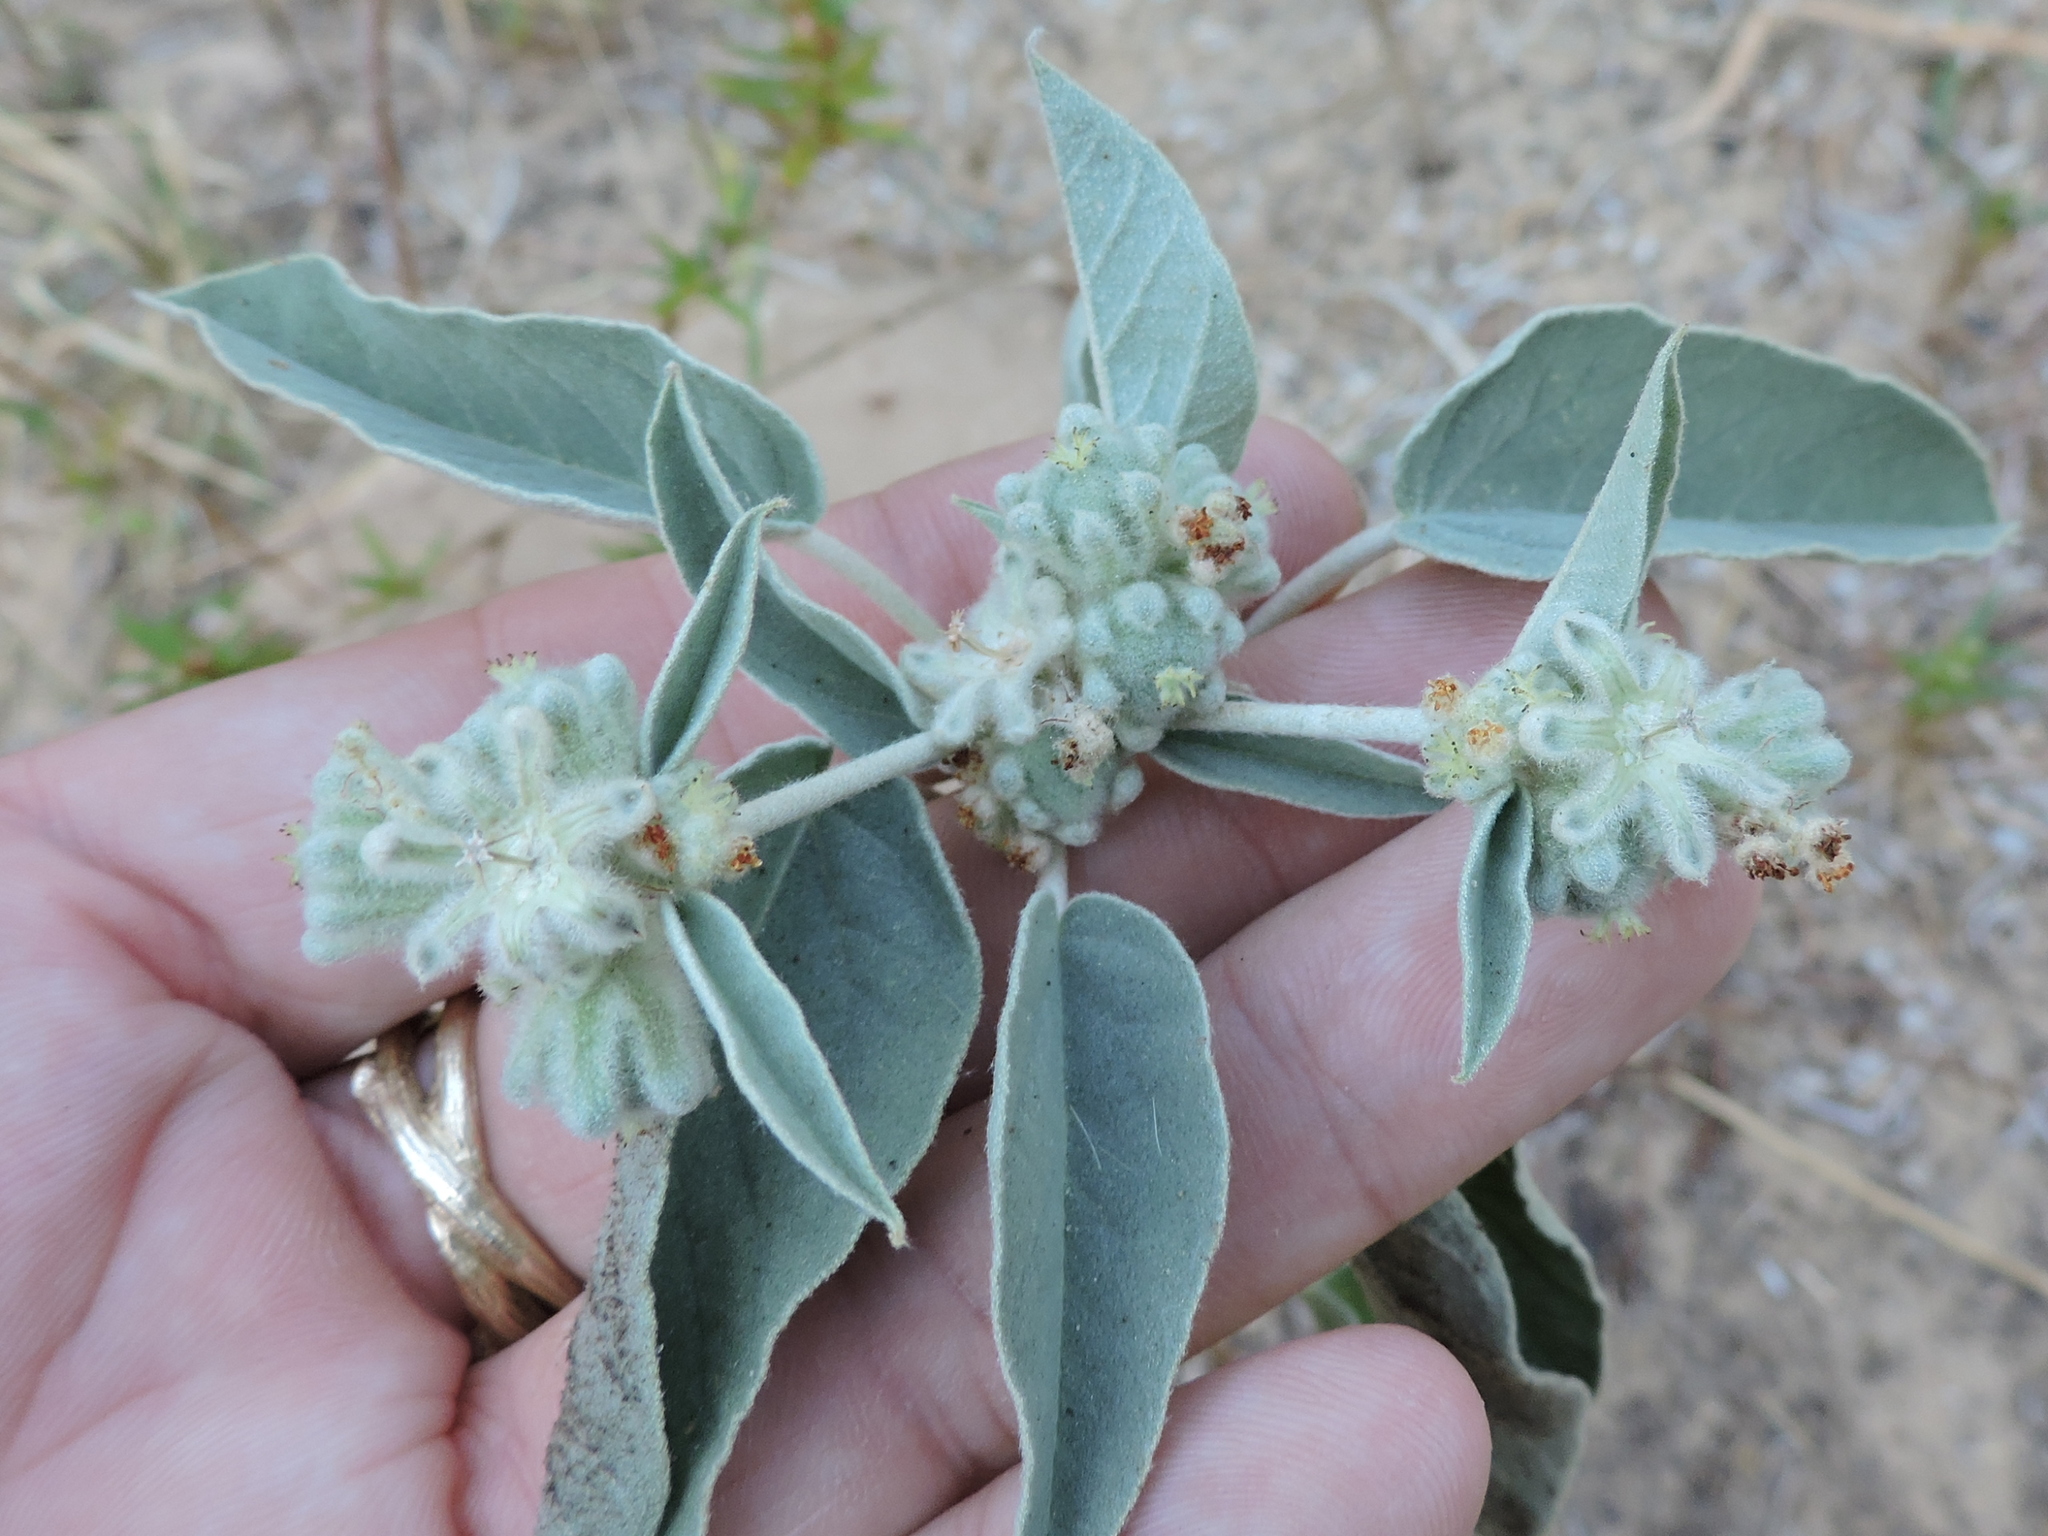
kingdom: Plantae
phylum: Tracheophyta
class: Magnoliopsida
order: Malpighiales
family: Euphorbiaceae
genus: Croton
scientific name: Croton lindheimeri
